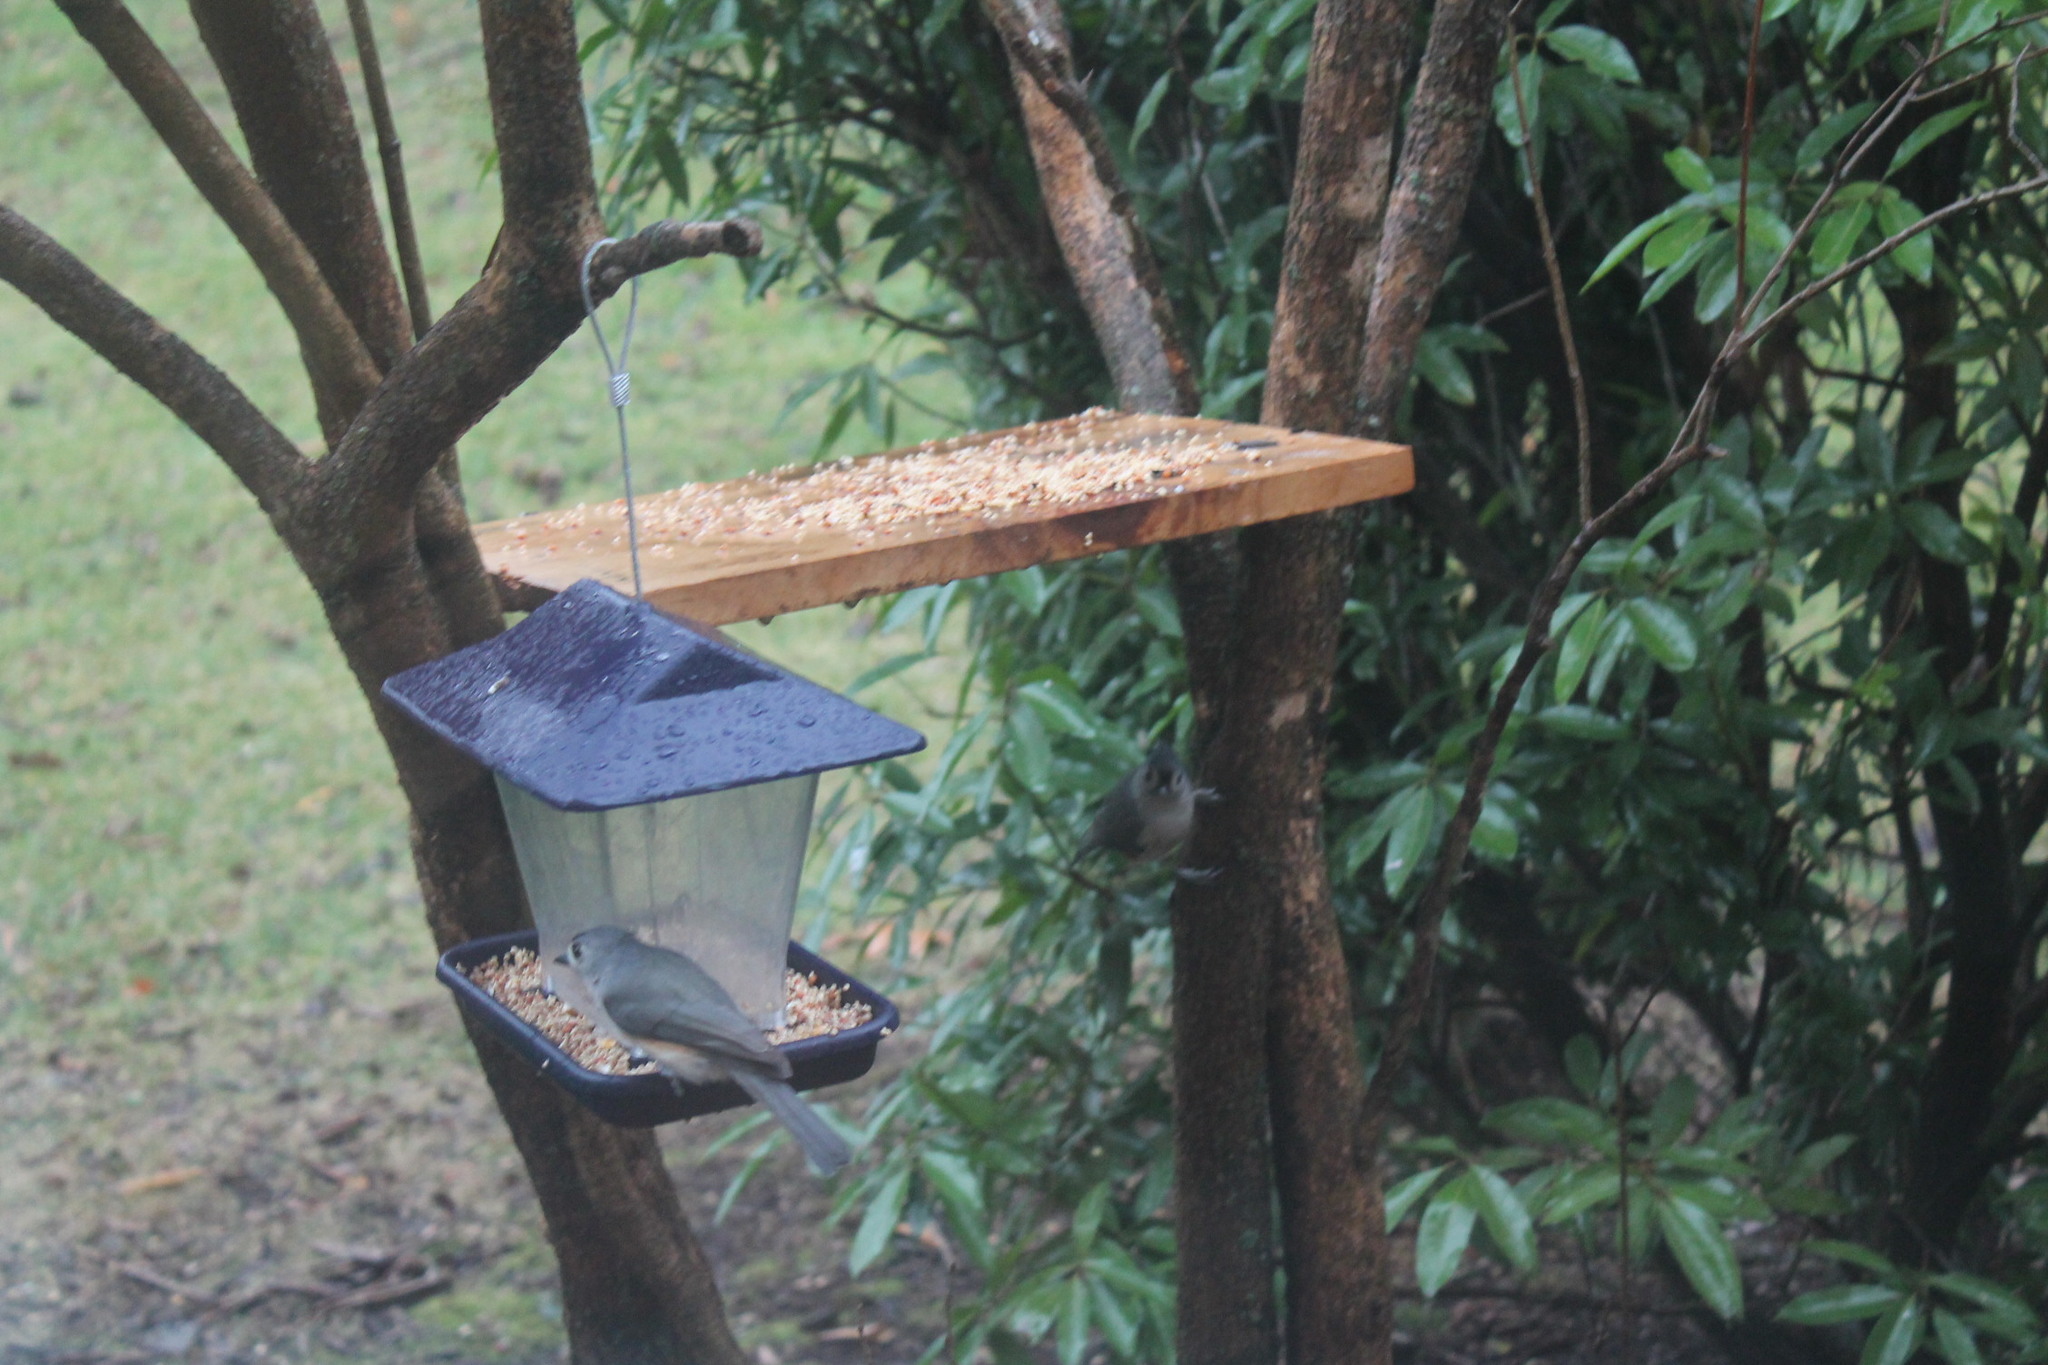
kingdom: Animalia
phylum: Chordata
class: Aves
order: Passeriformes
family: Paridae
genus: Baeolophus
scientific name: Baeolophus bicolor
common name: Tufted titmouse
